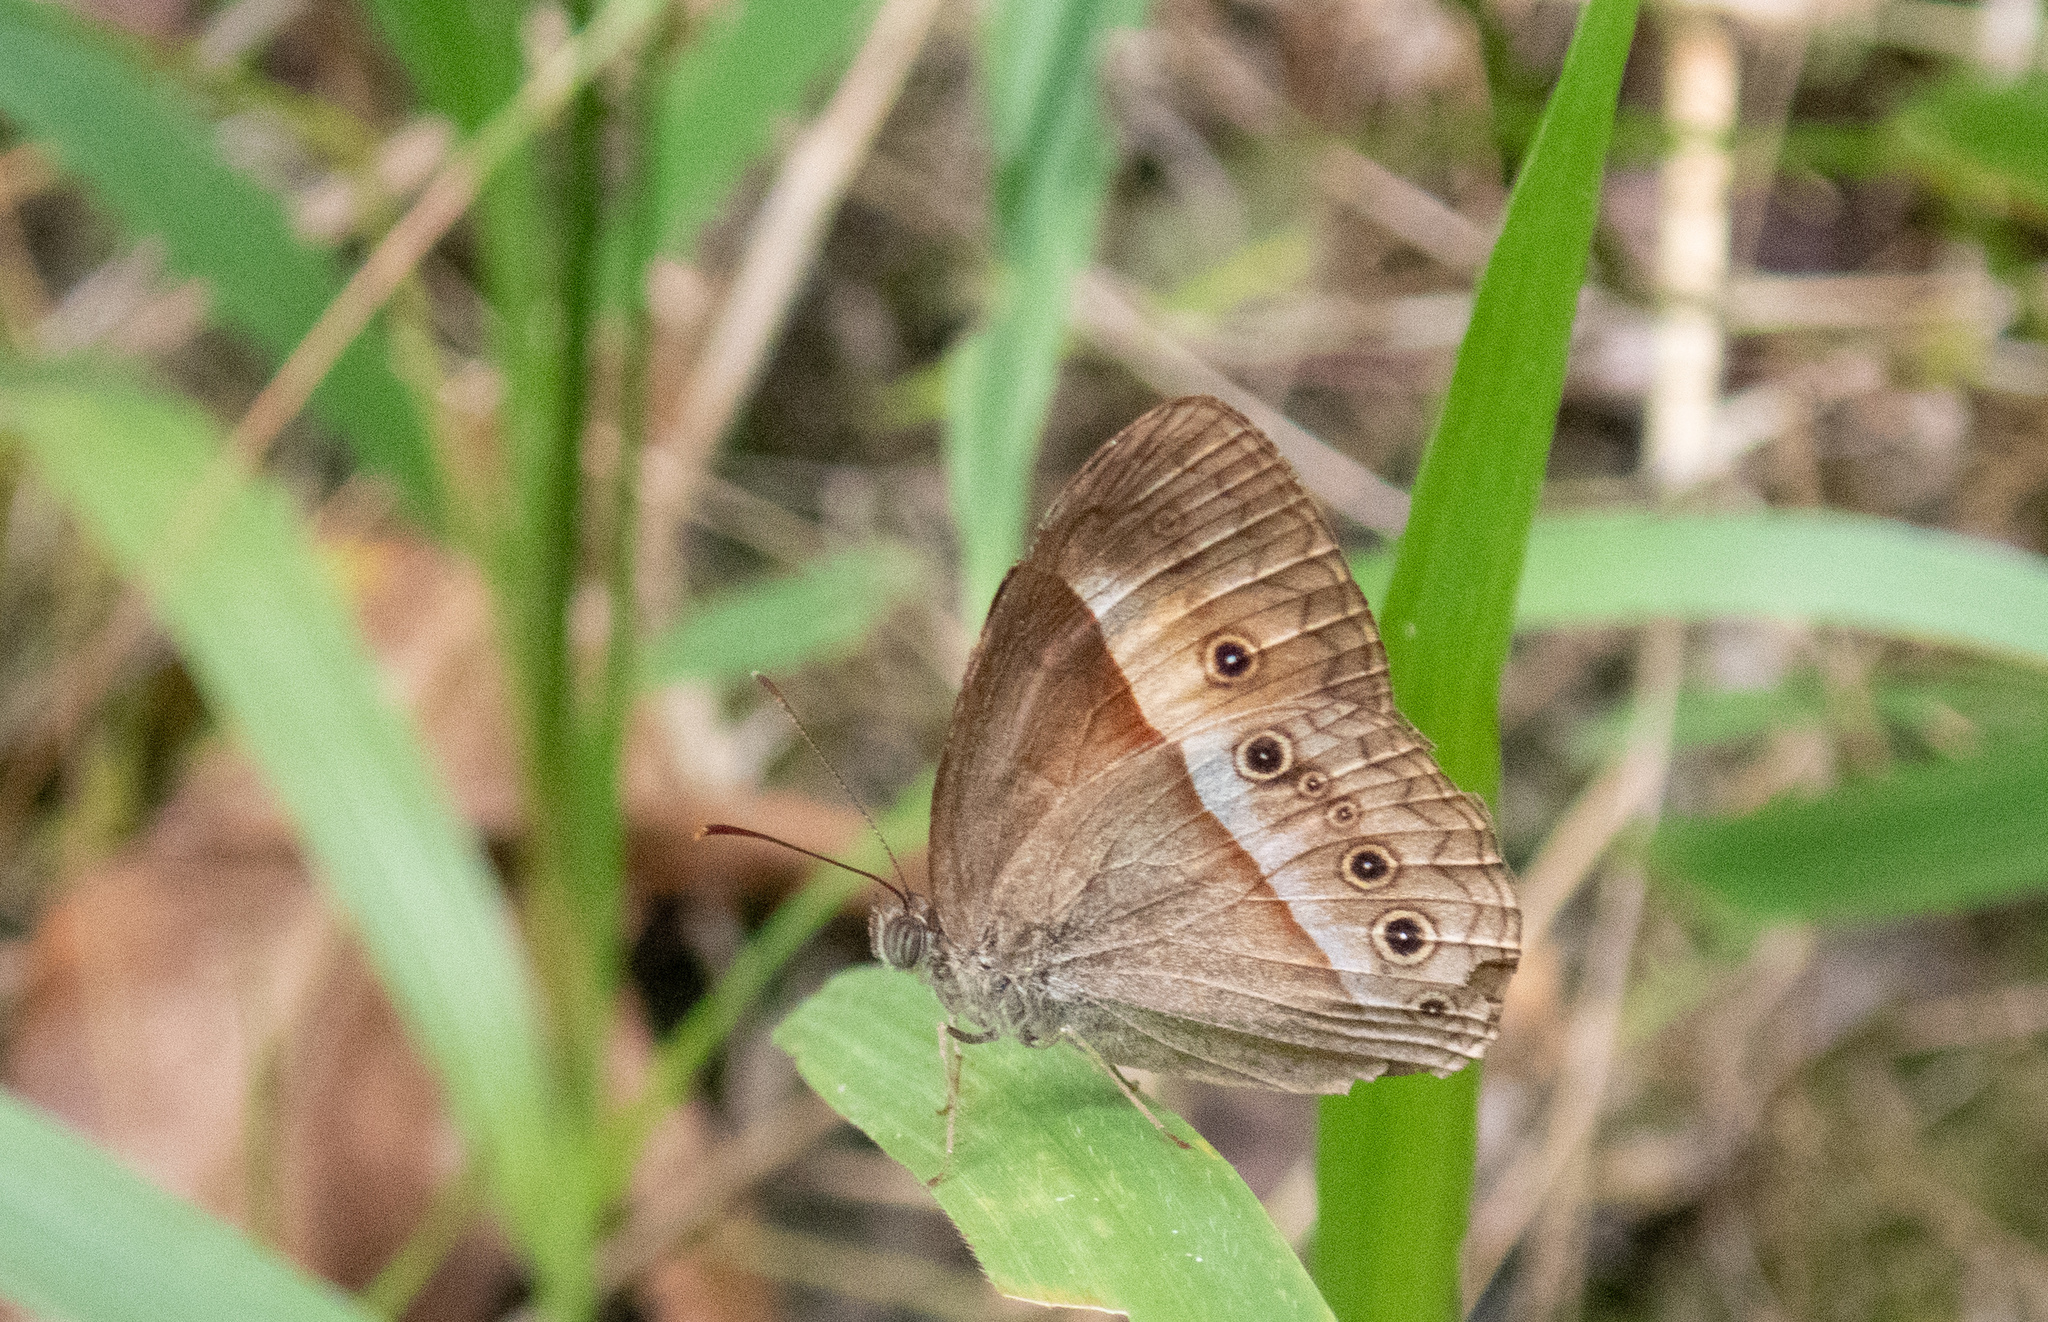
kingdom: Animalia
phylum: Arthropoda
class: Insecta
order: Lepidoptera
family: Nymphalidae
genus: Mycalesis
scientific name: Mycalesis terminus
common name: Orange bushbrown
